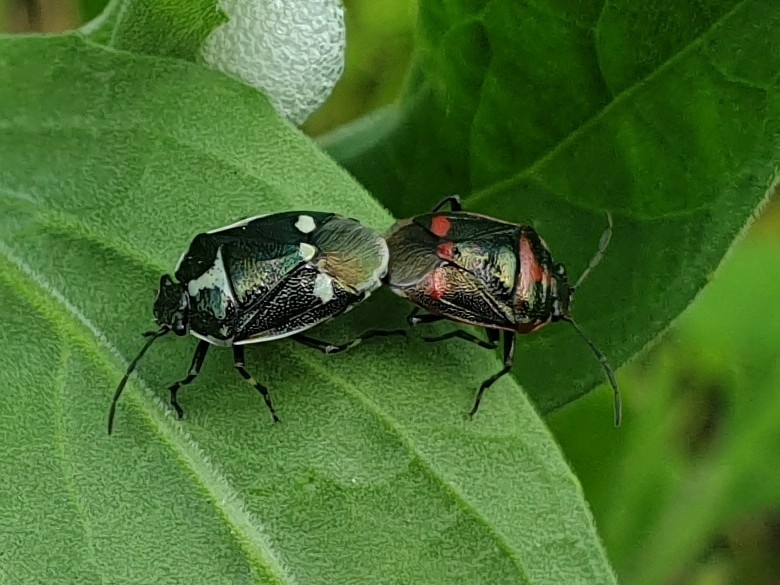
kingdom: Animalia
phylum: Arthropoda
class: Insecta
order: Hemiptera
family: Pentatomidae
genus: Eurydema
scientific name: Eurydema oleracea
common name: Cabbage bug
